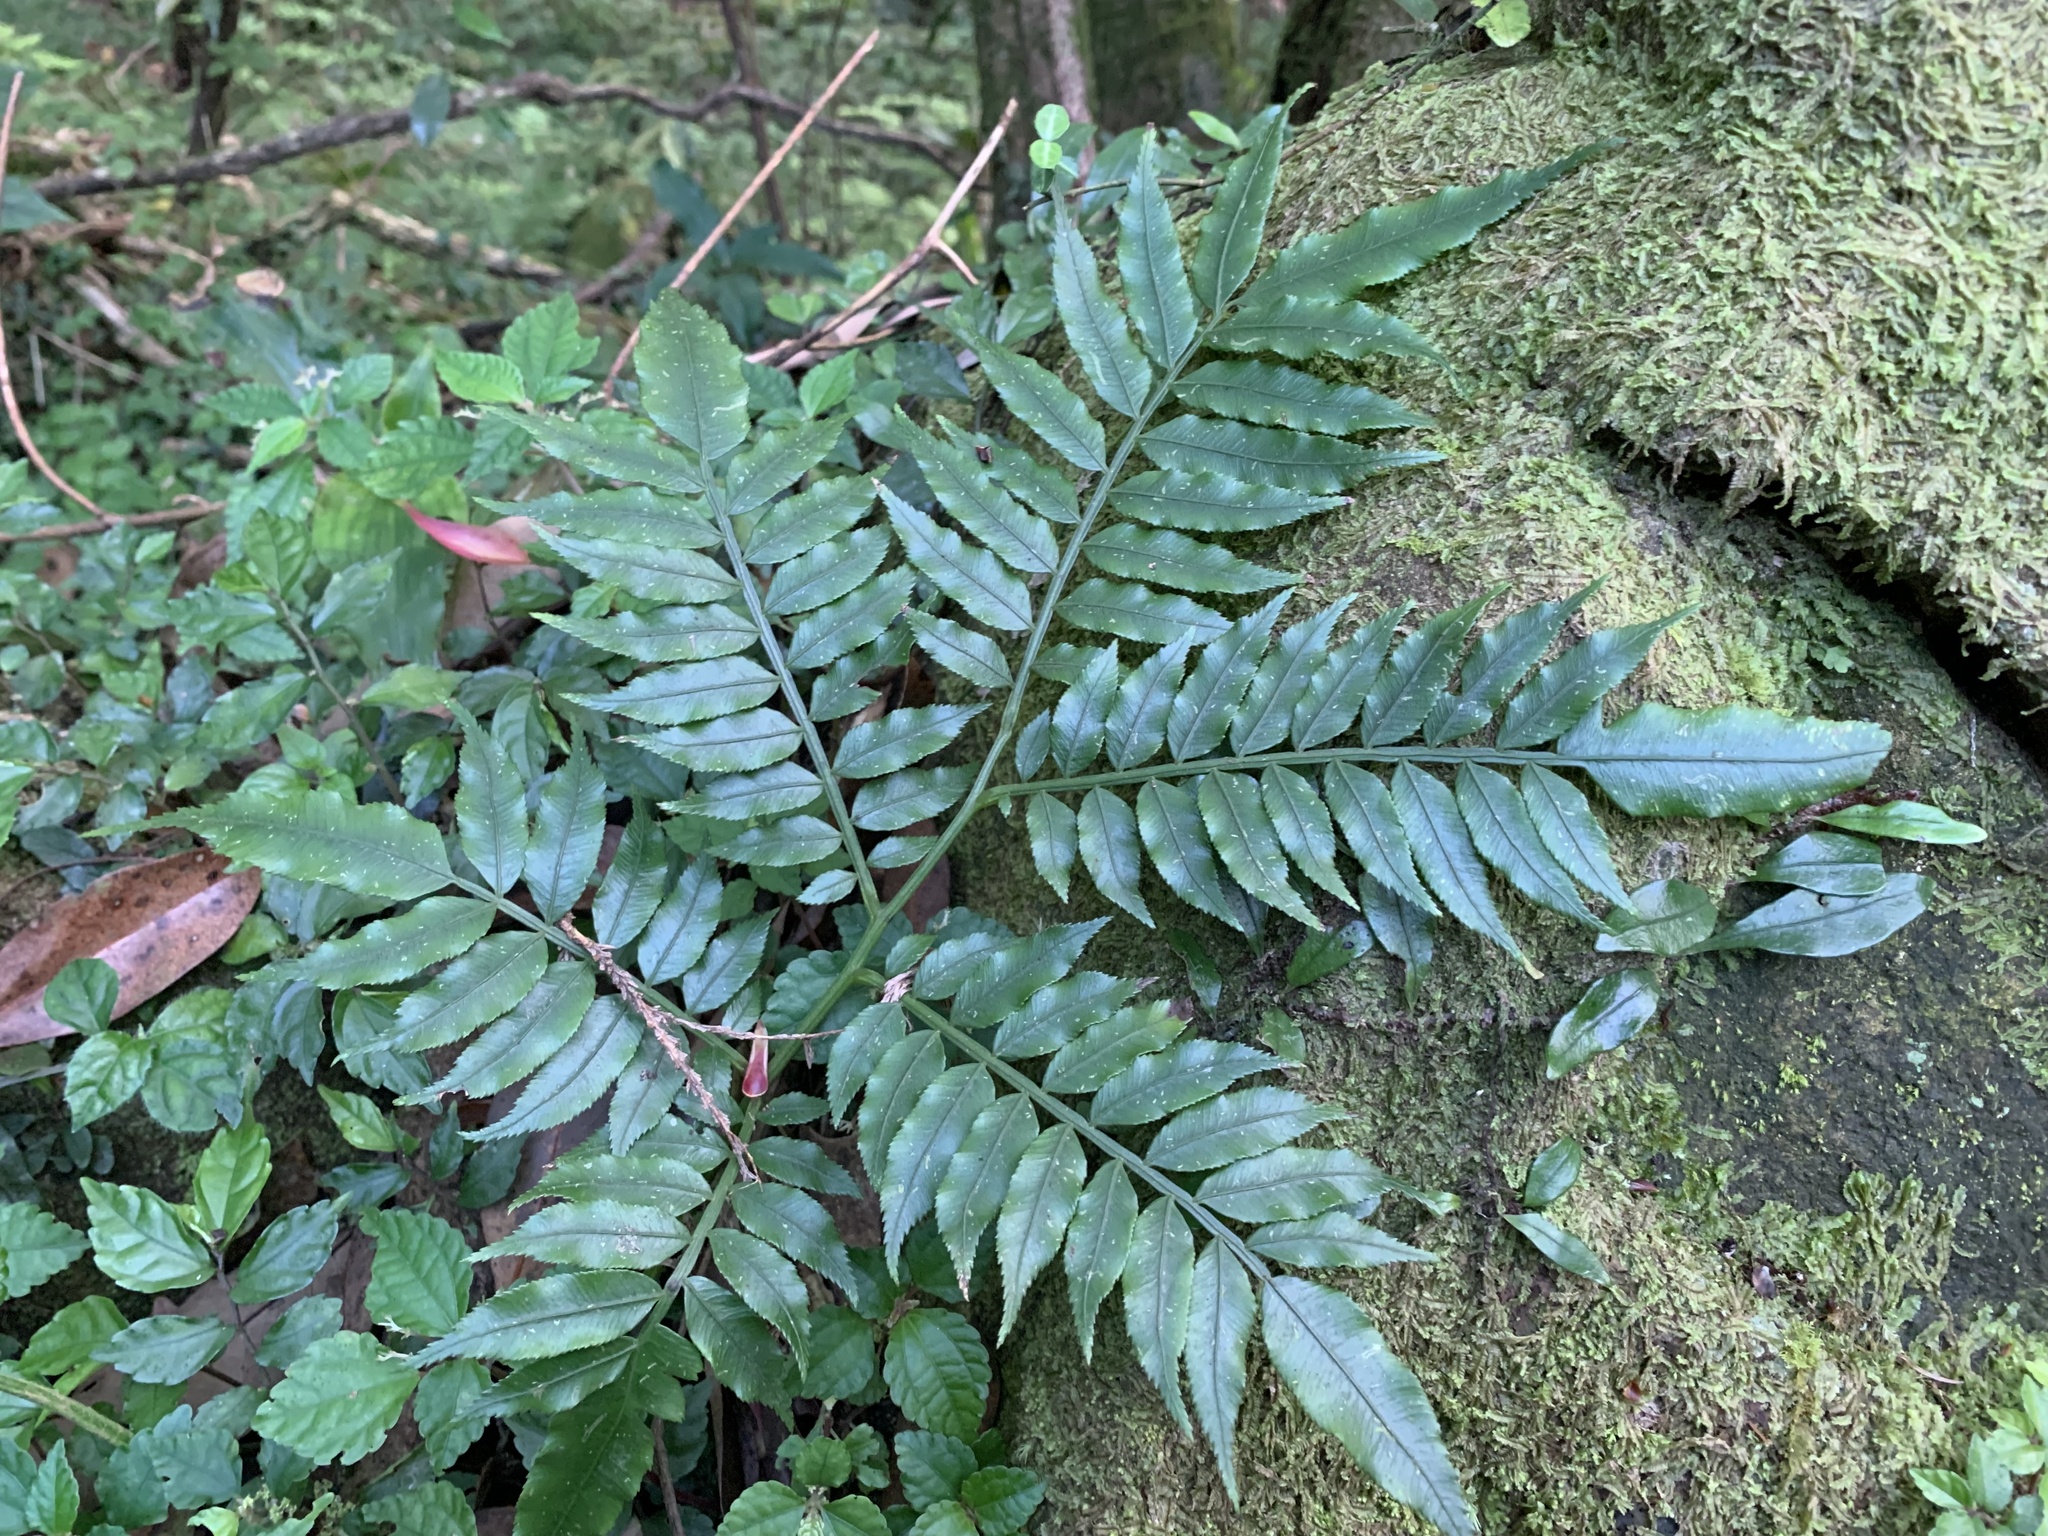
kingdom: Plantae
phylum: Tracheophyta
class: Polypodiopsida
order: Marattiales
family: Marattiaceae
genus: Angiopteris
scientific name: Angiopteris lygodiifolia
